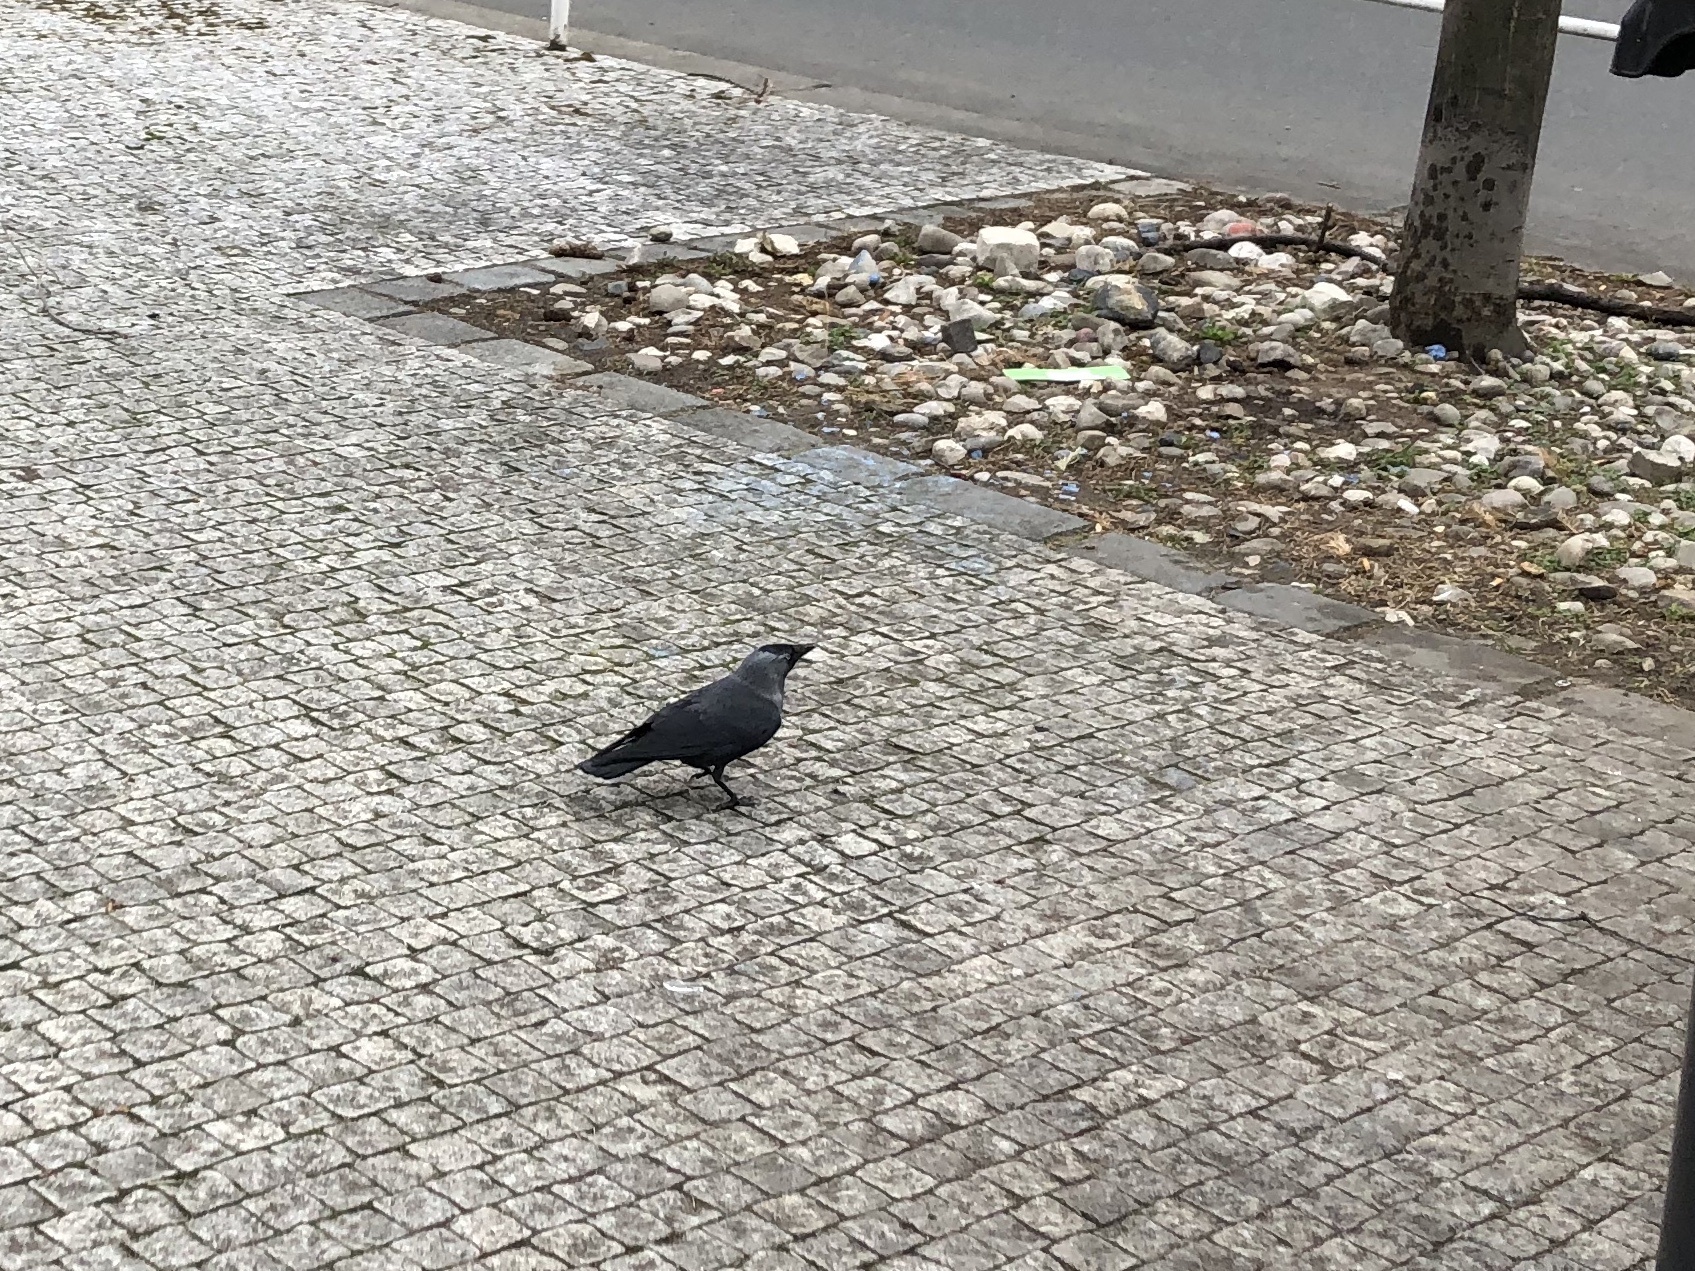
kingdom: Animalia
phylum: Chordata
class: Aves
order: Passeriformes
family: Corvidae
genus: Coloeus
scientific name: Coloeus monedula
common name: Western jackdaw
